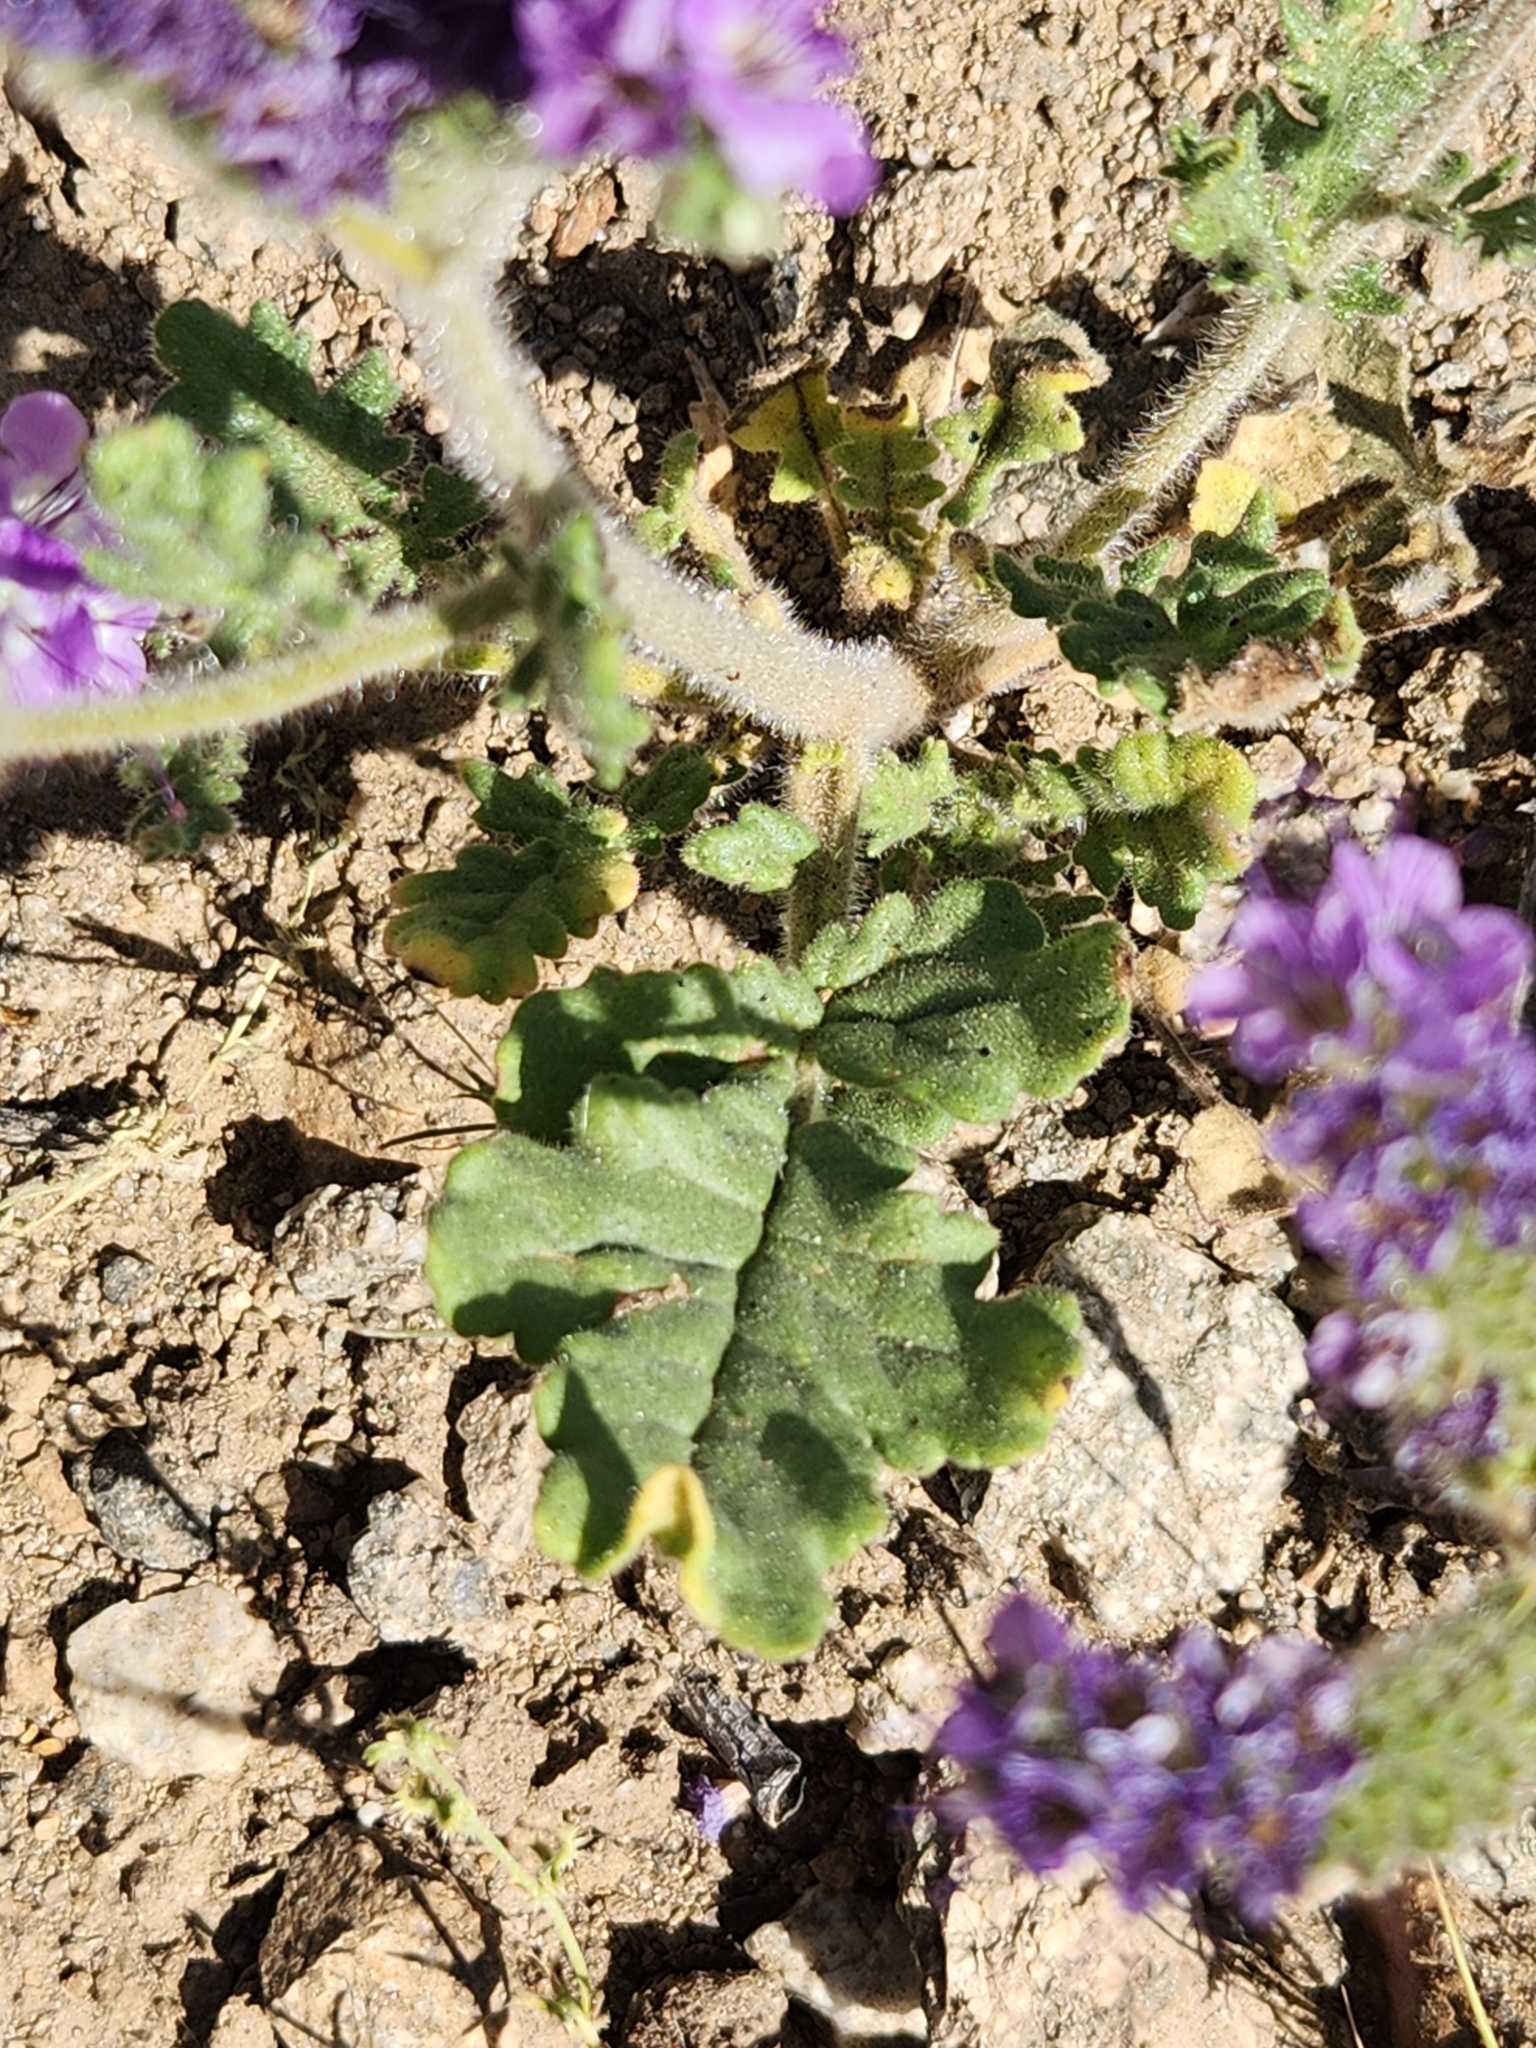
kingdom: Plantae
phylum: Tracheophyta
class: Magnoliopsida
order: Boraginales
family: Hydrophyllaceae
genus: Phacelia
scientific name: Phacelia crenulata
